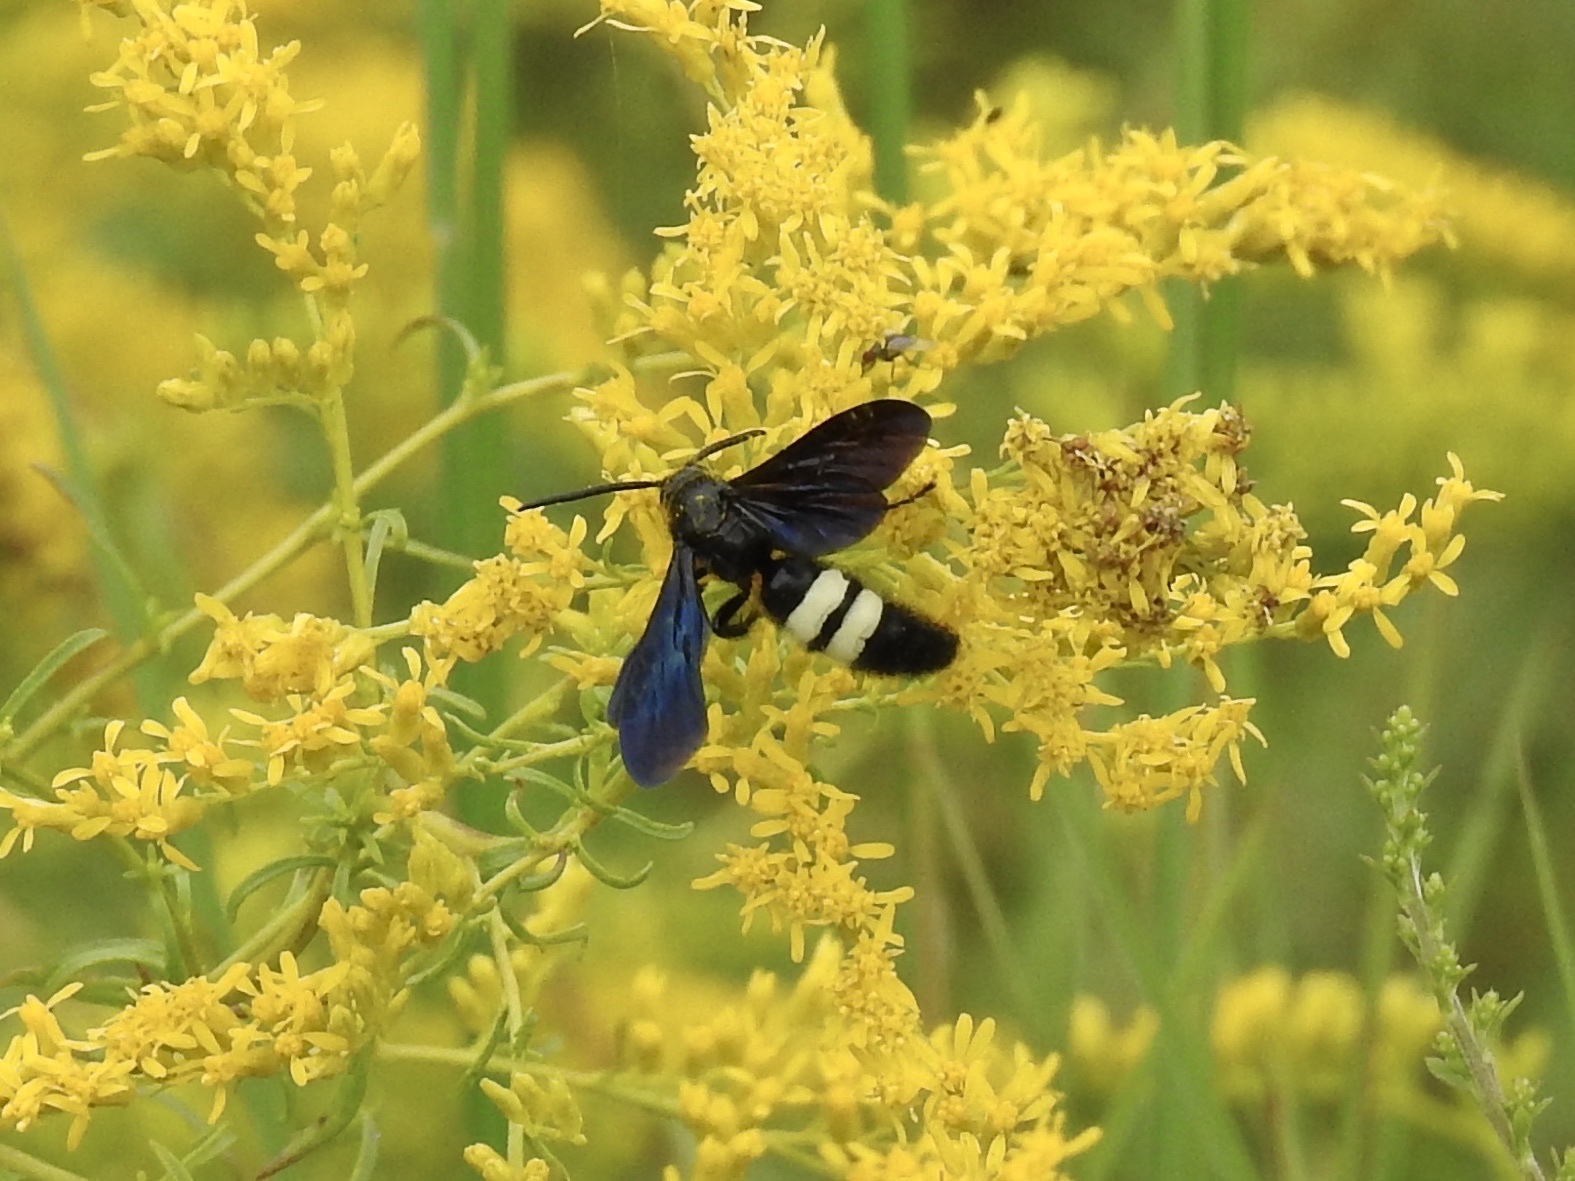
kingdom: Animalia
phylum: Arthropoda
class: Insecta
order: Hymenoptera
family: Scoliidae
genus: Scolia
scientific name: Scolia bicincta
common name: Double-banded scoliid wasp
